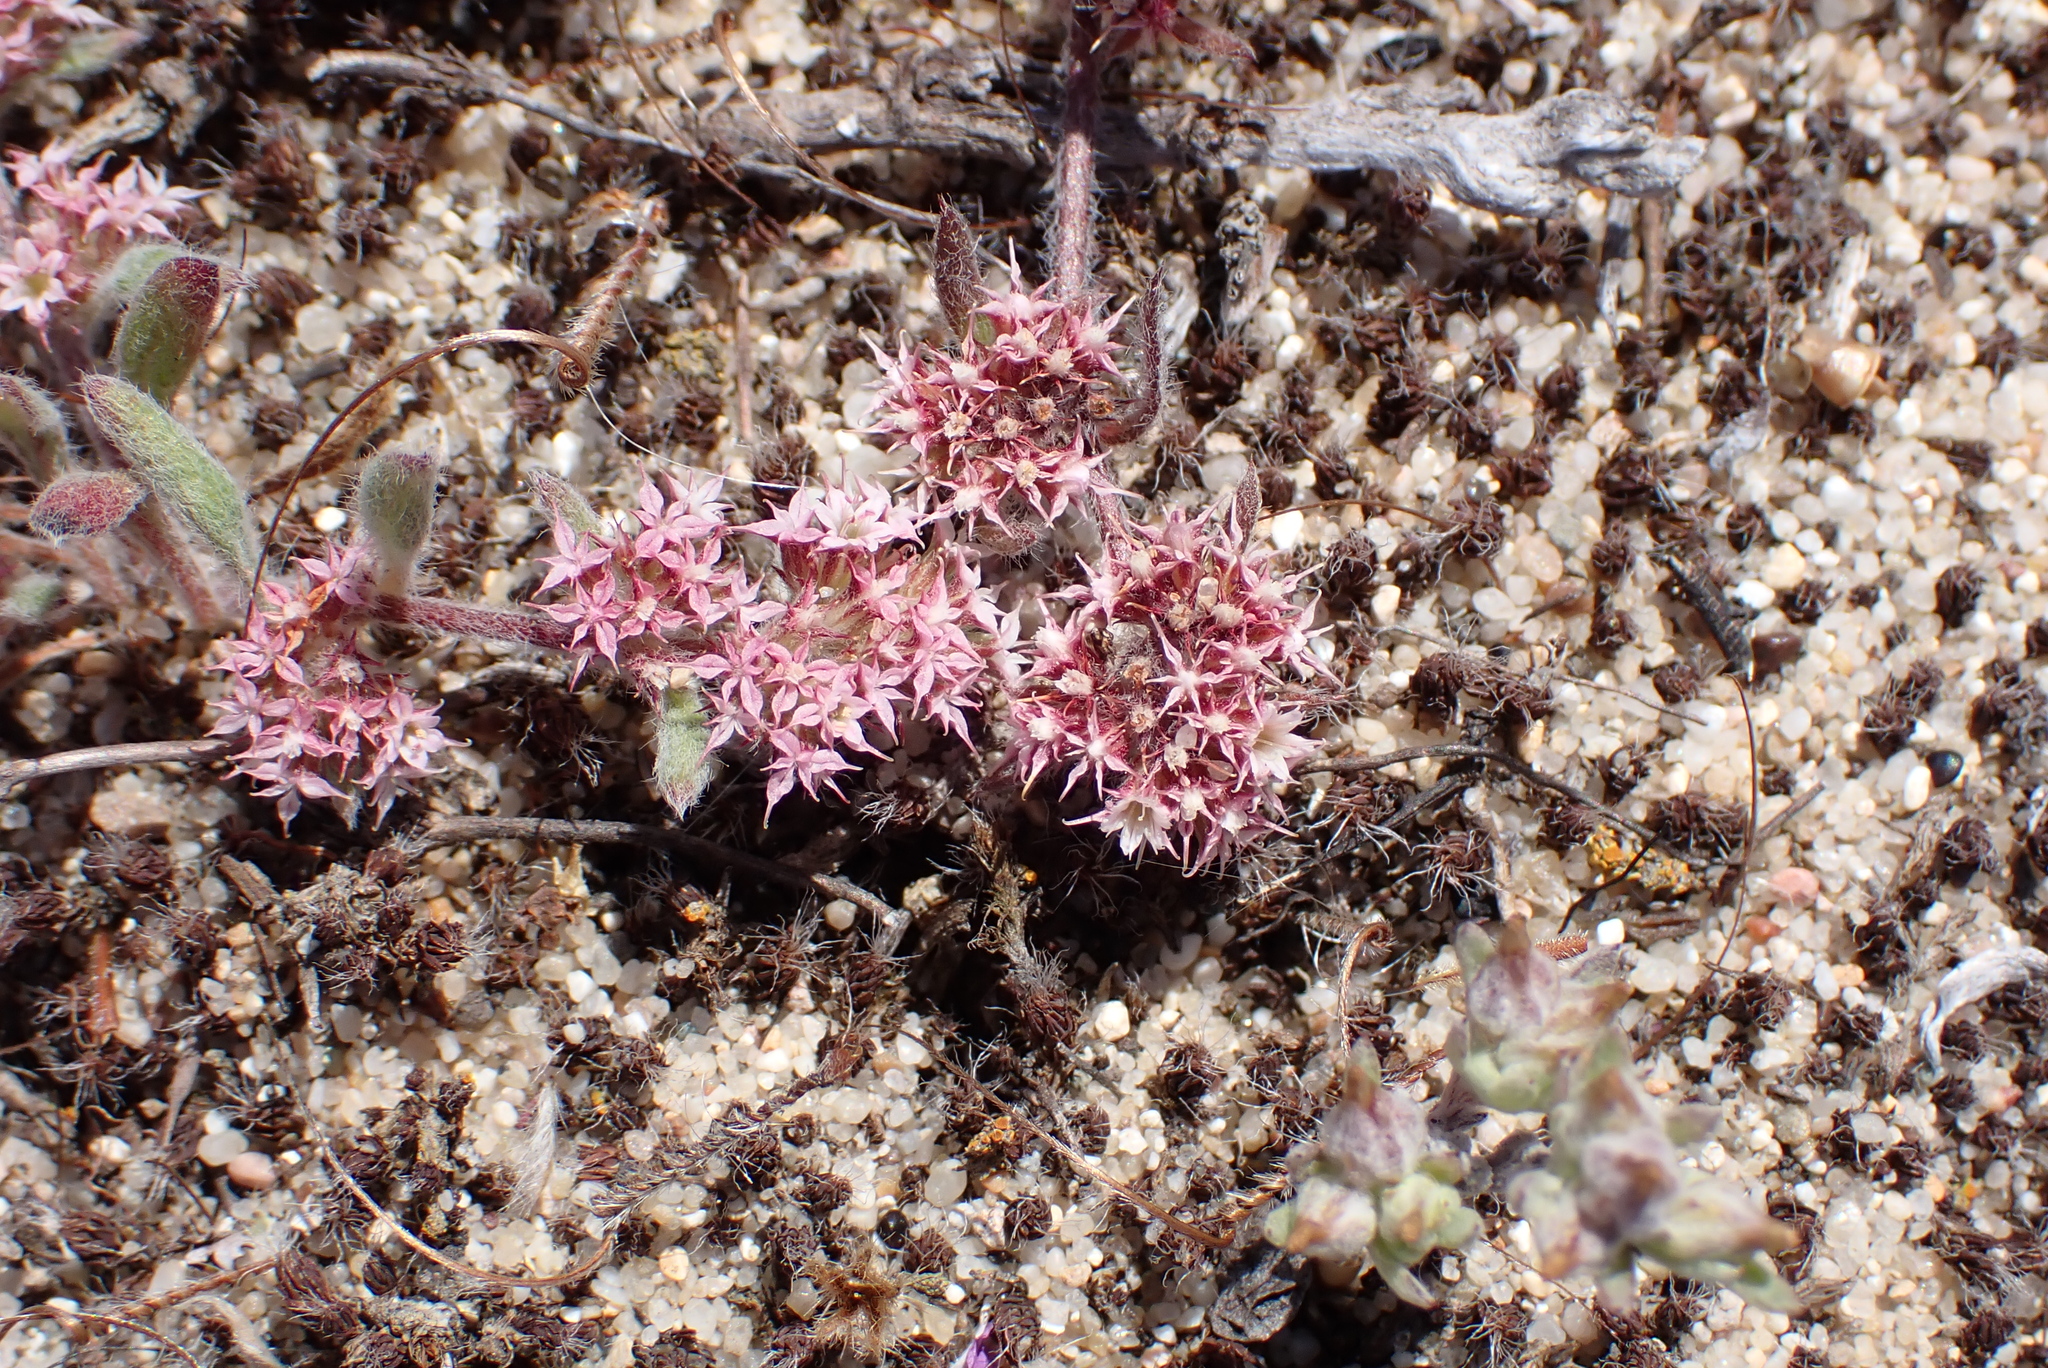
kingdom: Plantae
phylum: Tracheophyta
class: Magnoliopsida
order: Caryophyllales
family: Polygonaceae
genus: Chorizanthe
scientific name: Chorizanthe pungens
